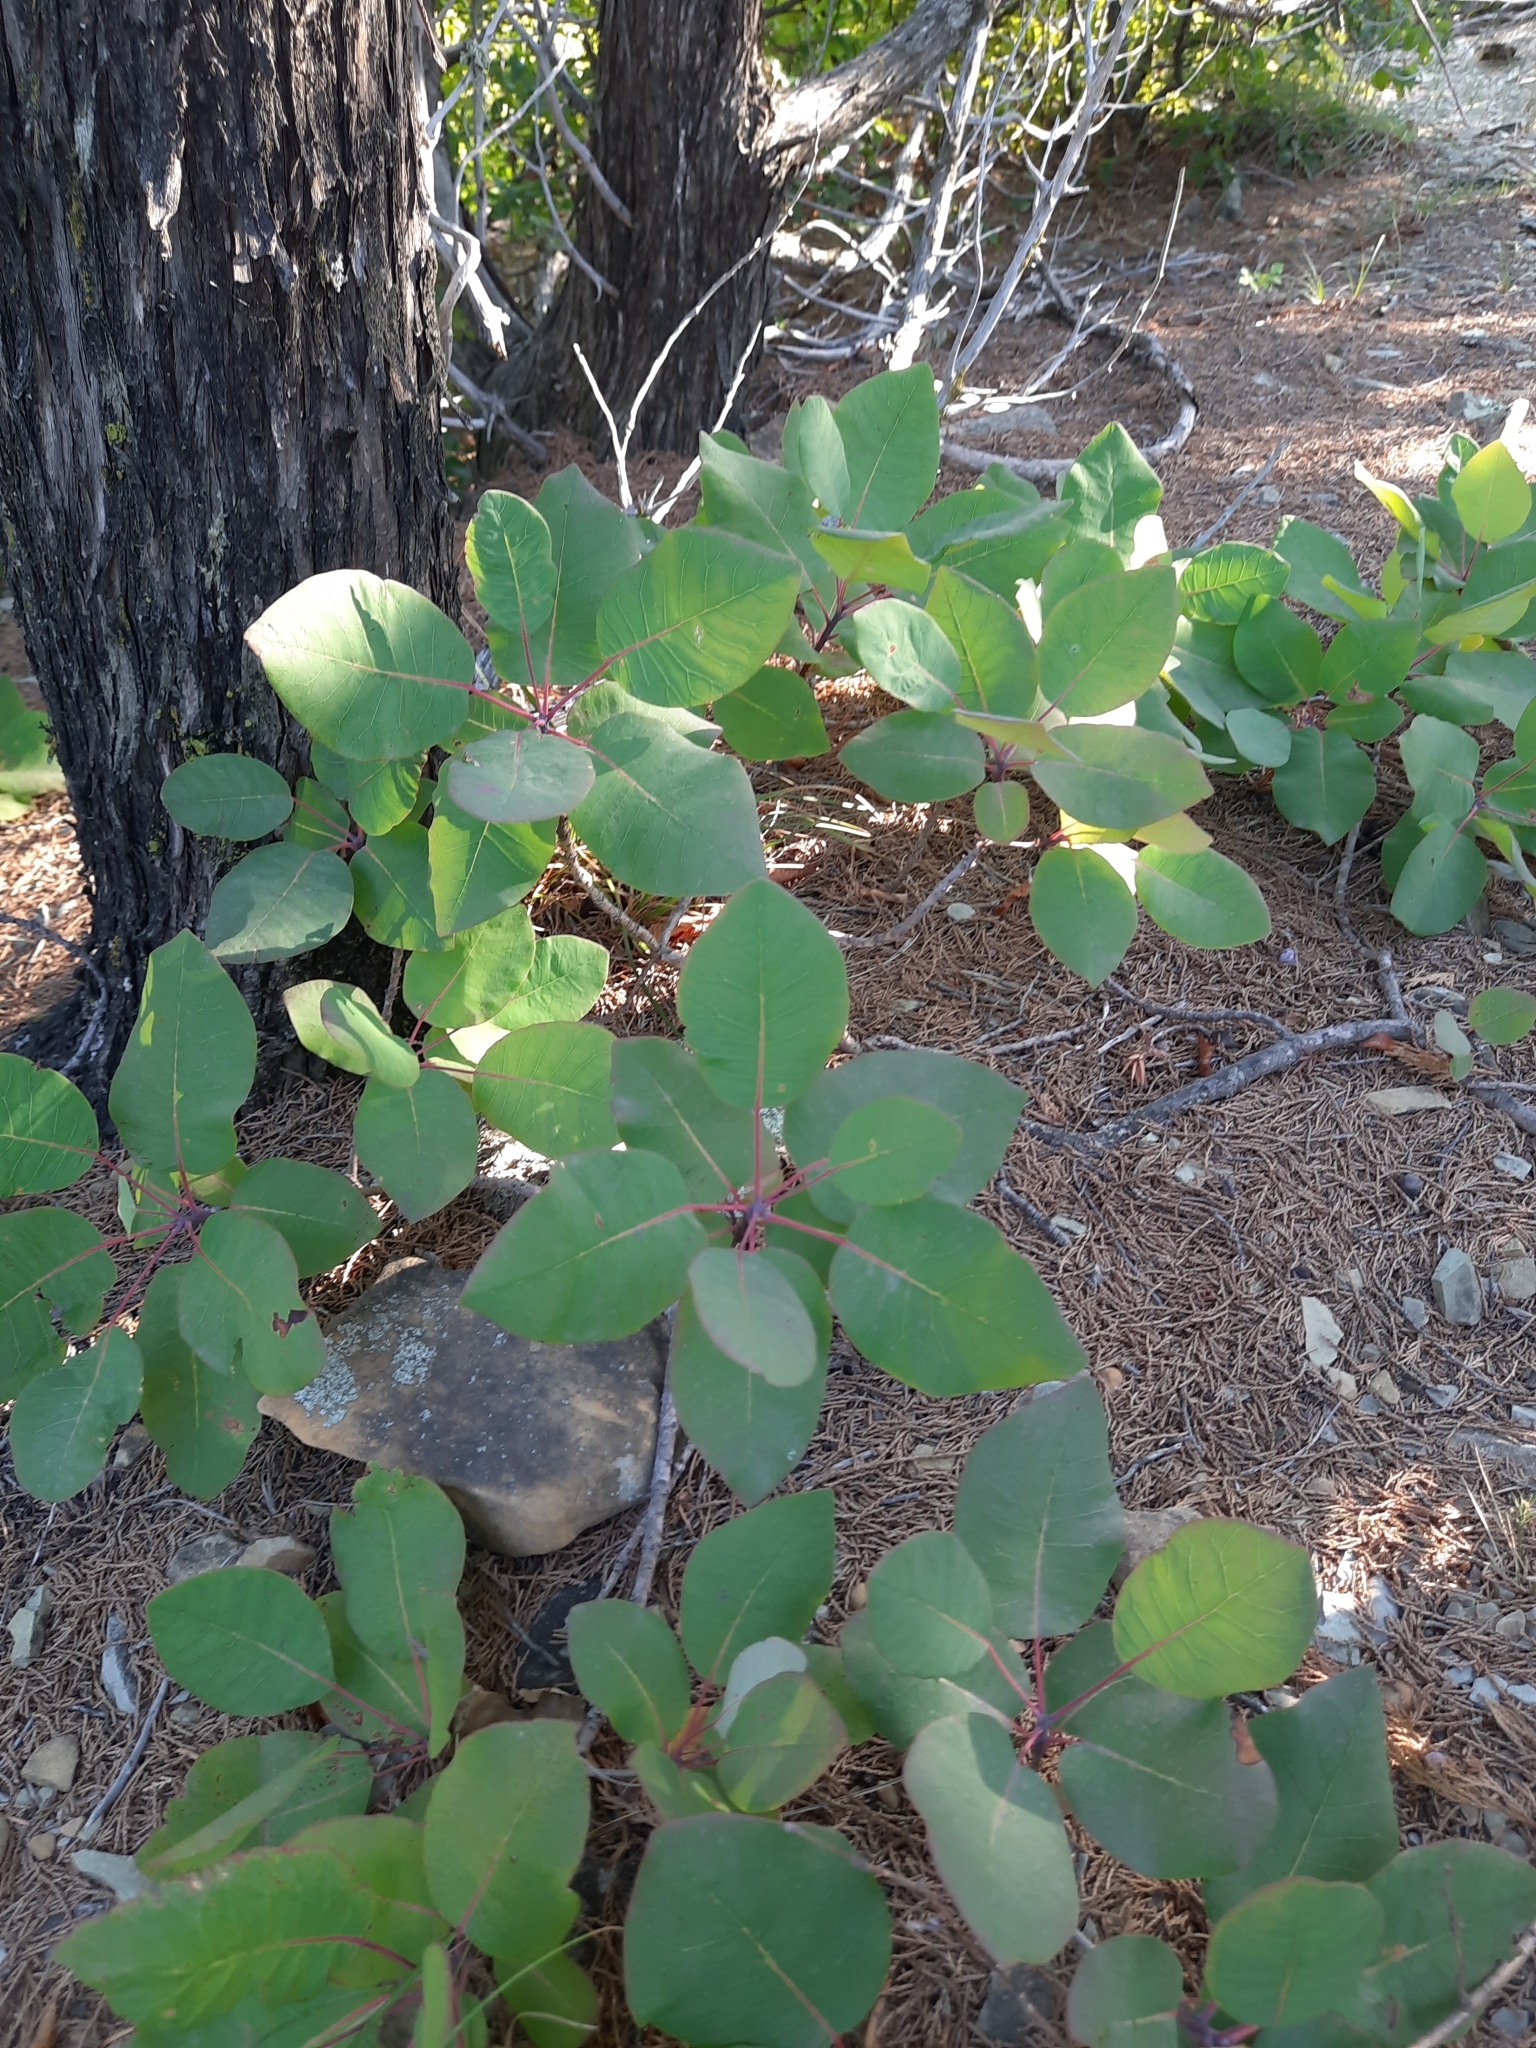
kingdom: Plantae
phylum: Tracheophyta
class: Magnoliopsida
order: Sapindales
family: Anacardiaceae
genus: Cotinus
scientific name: Cotinus coggygria
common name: Smoke-tree
